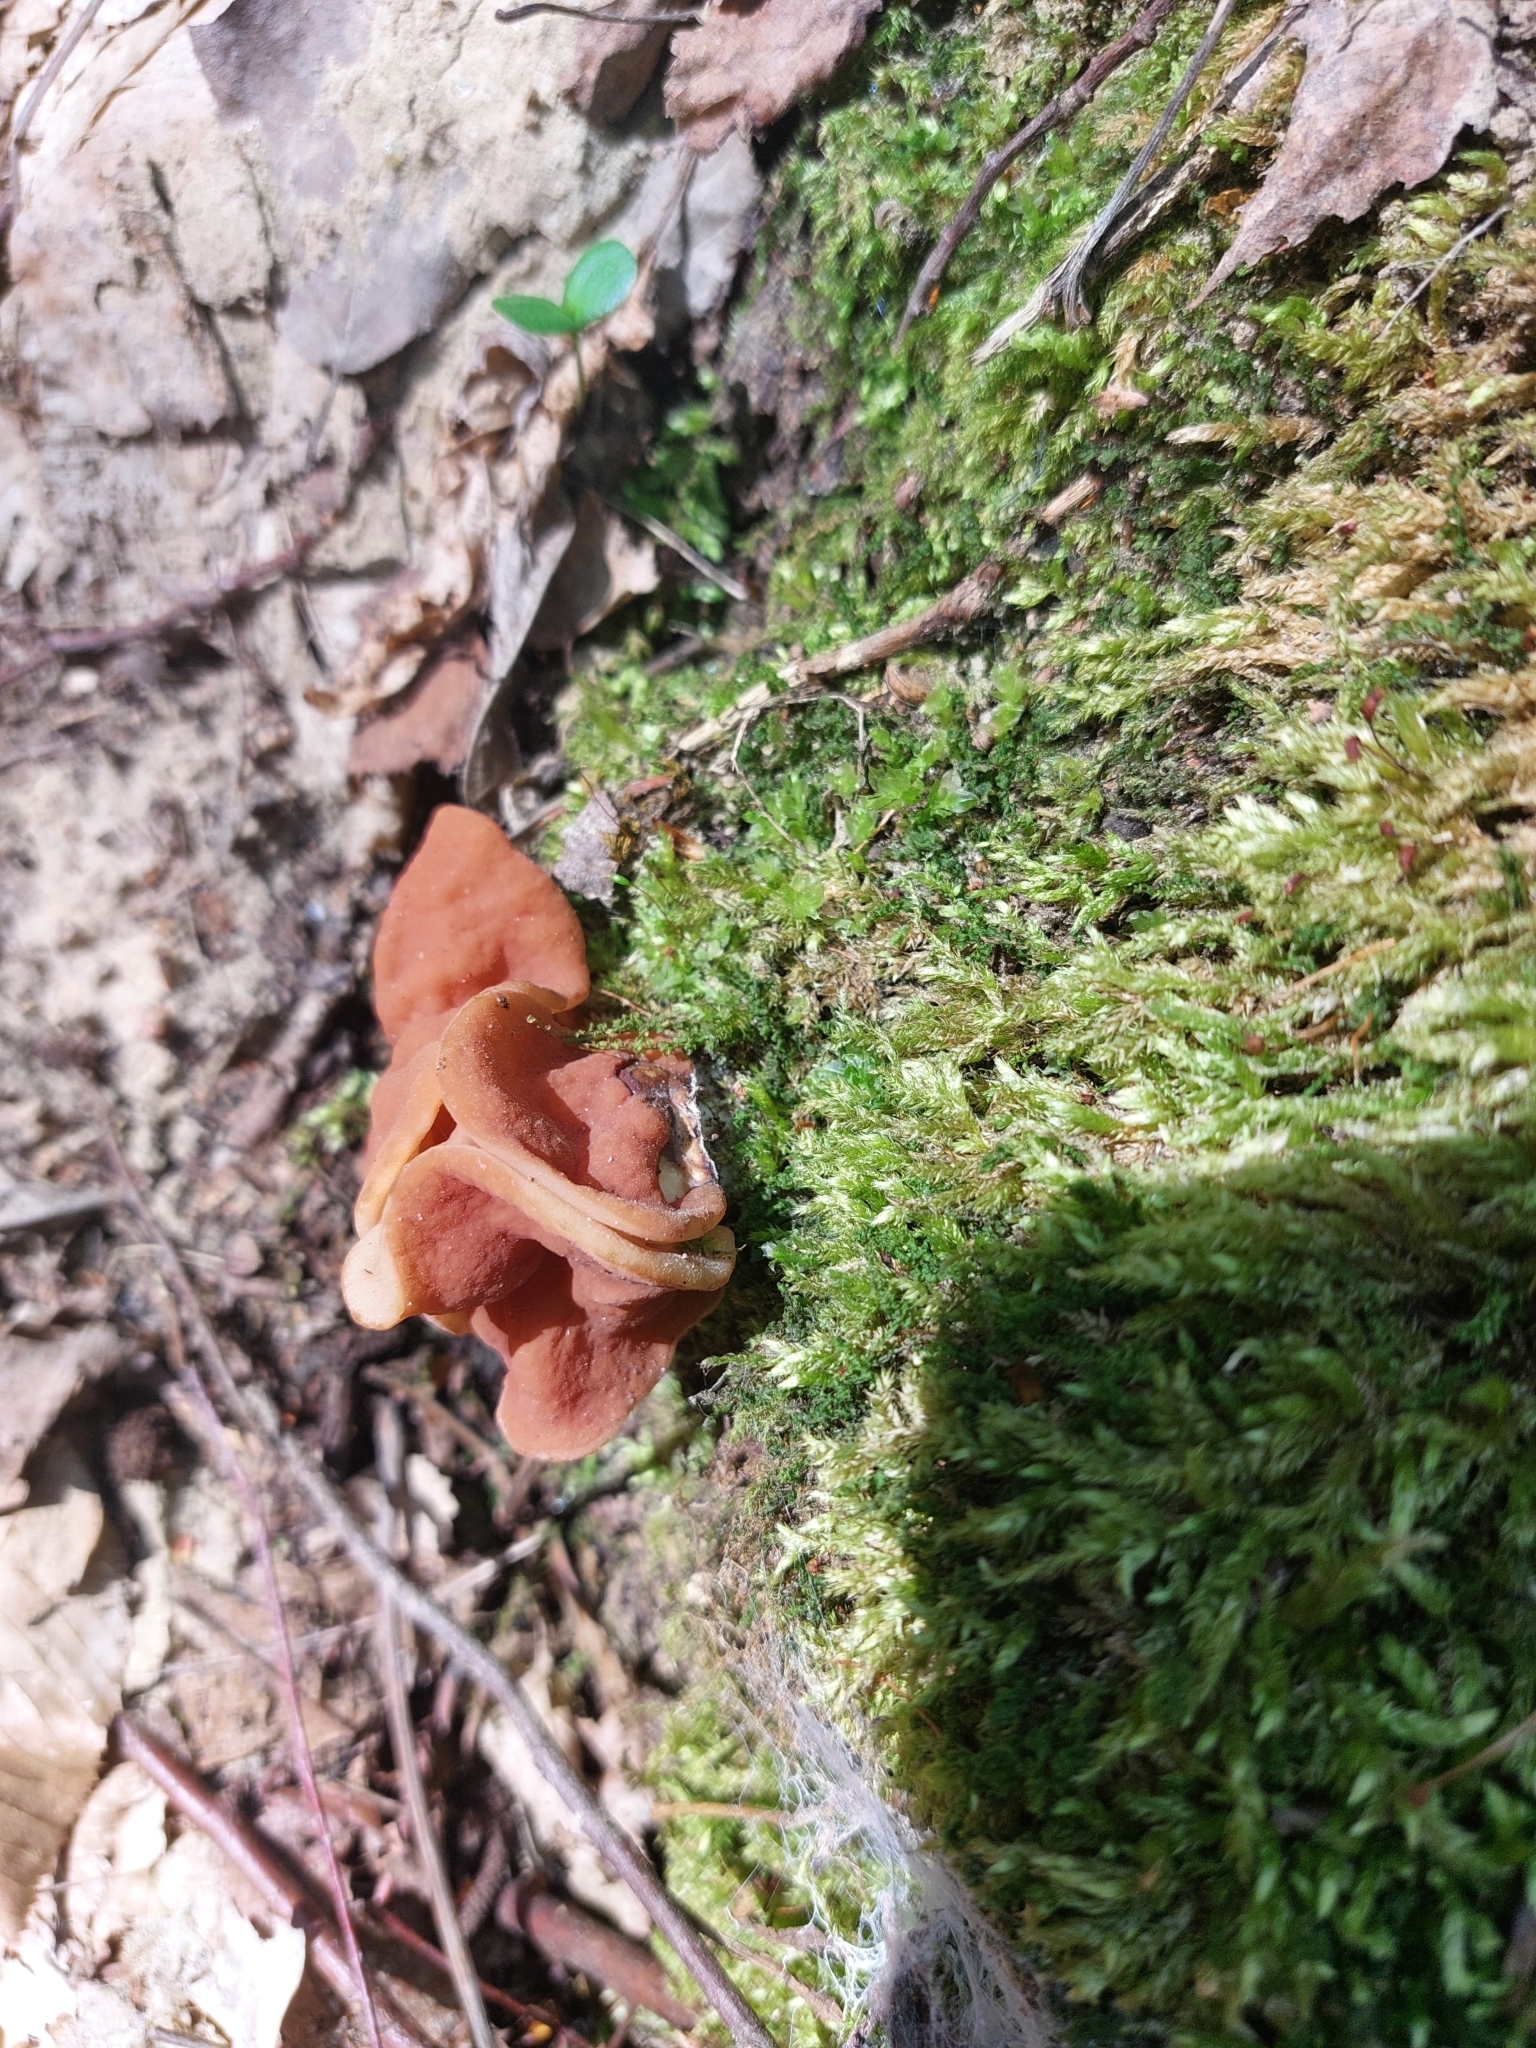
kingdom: Fungi
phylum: Ascomycota
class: Pezizomycetes
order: Pezizales
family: Discinaceae
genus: Discina
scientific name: Discina fastigiata
